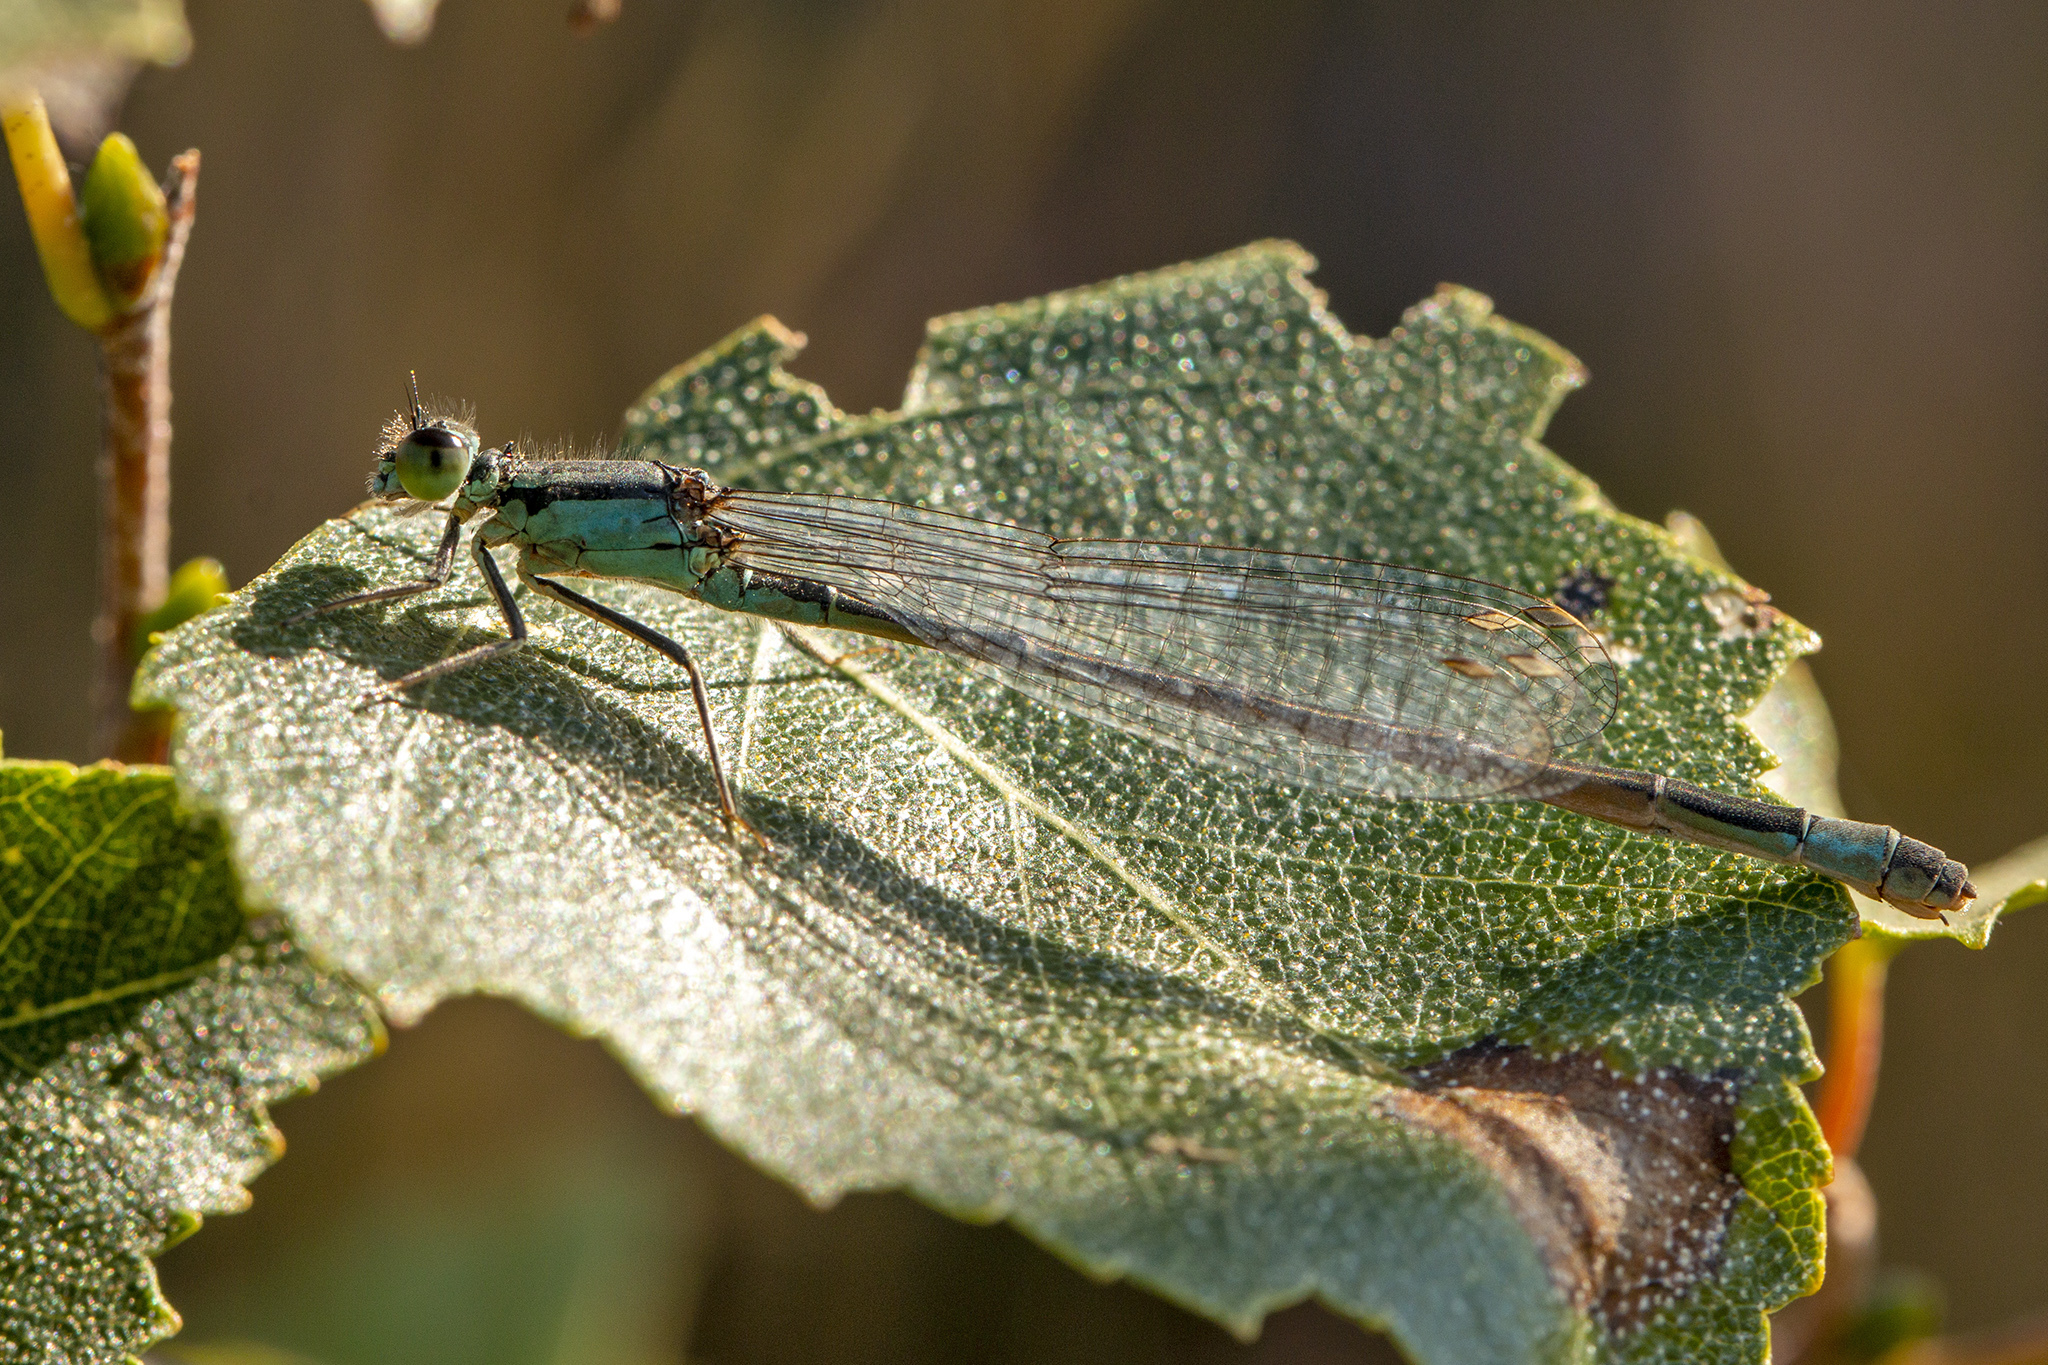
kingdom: Animalia
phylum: Arthropoda
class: Insecta
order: Odonata
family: Coenagrionidae
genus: Ischnura
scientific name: Ischnura elegans
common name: Blue-tailed damselfly
